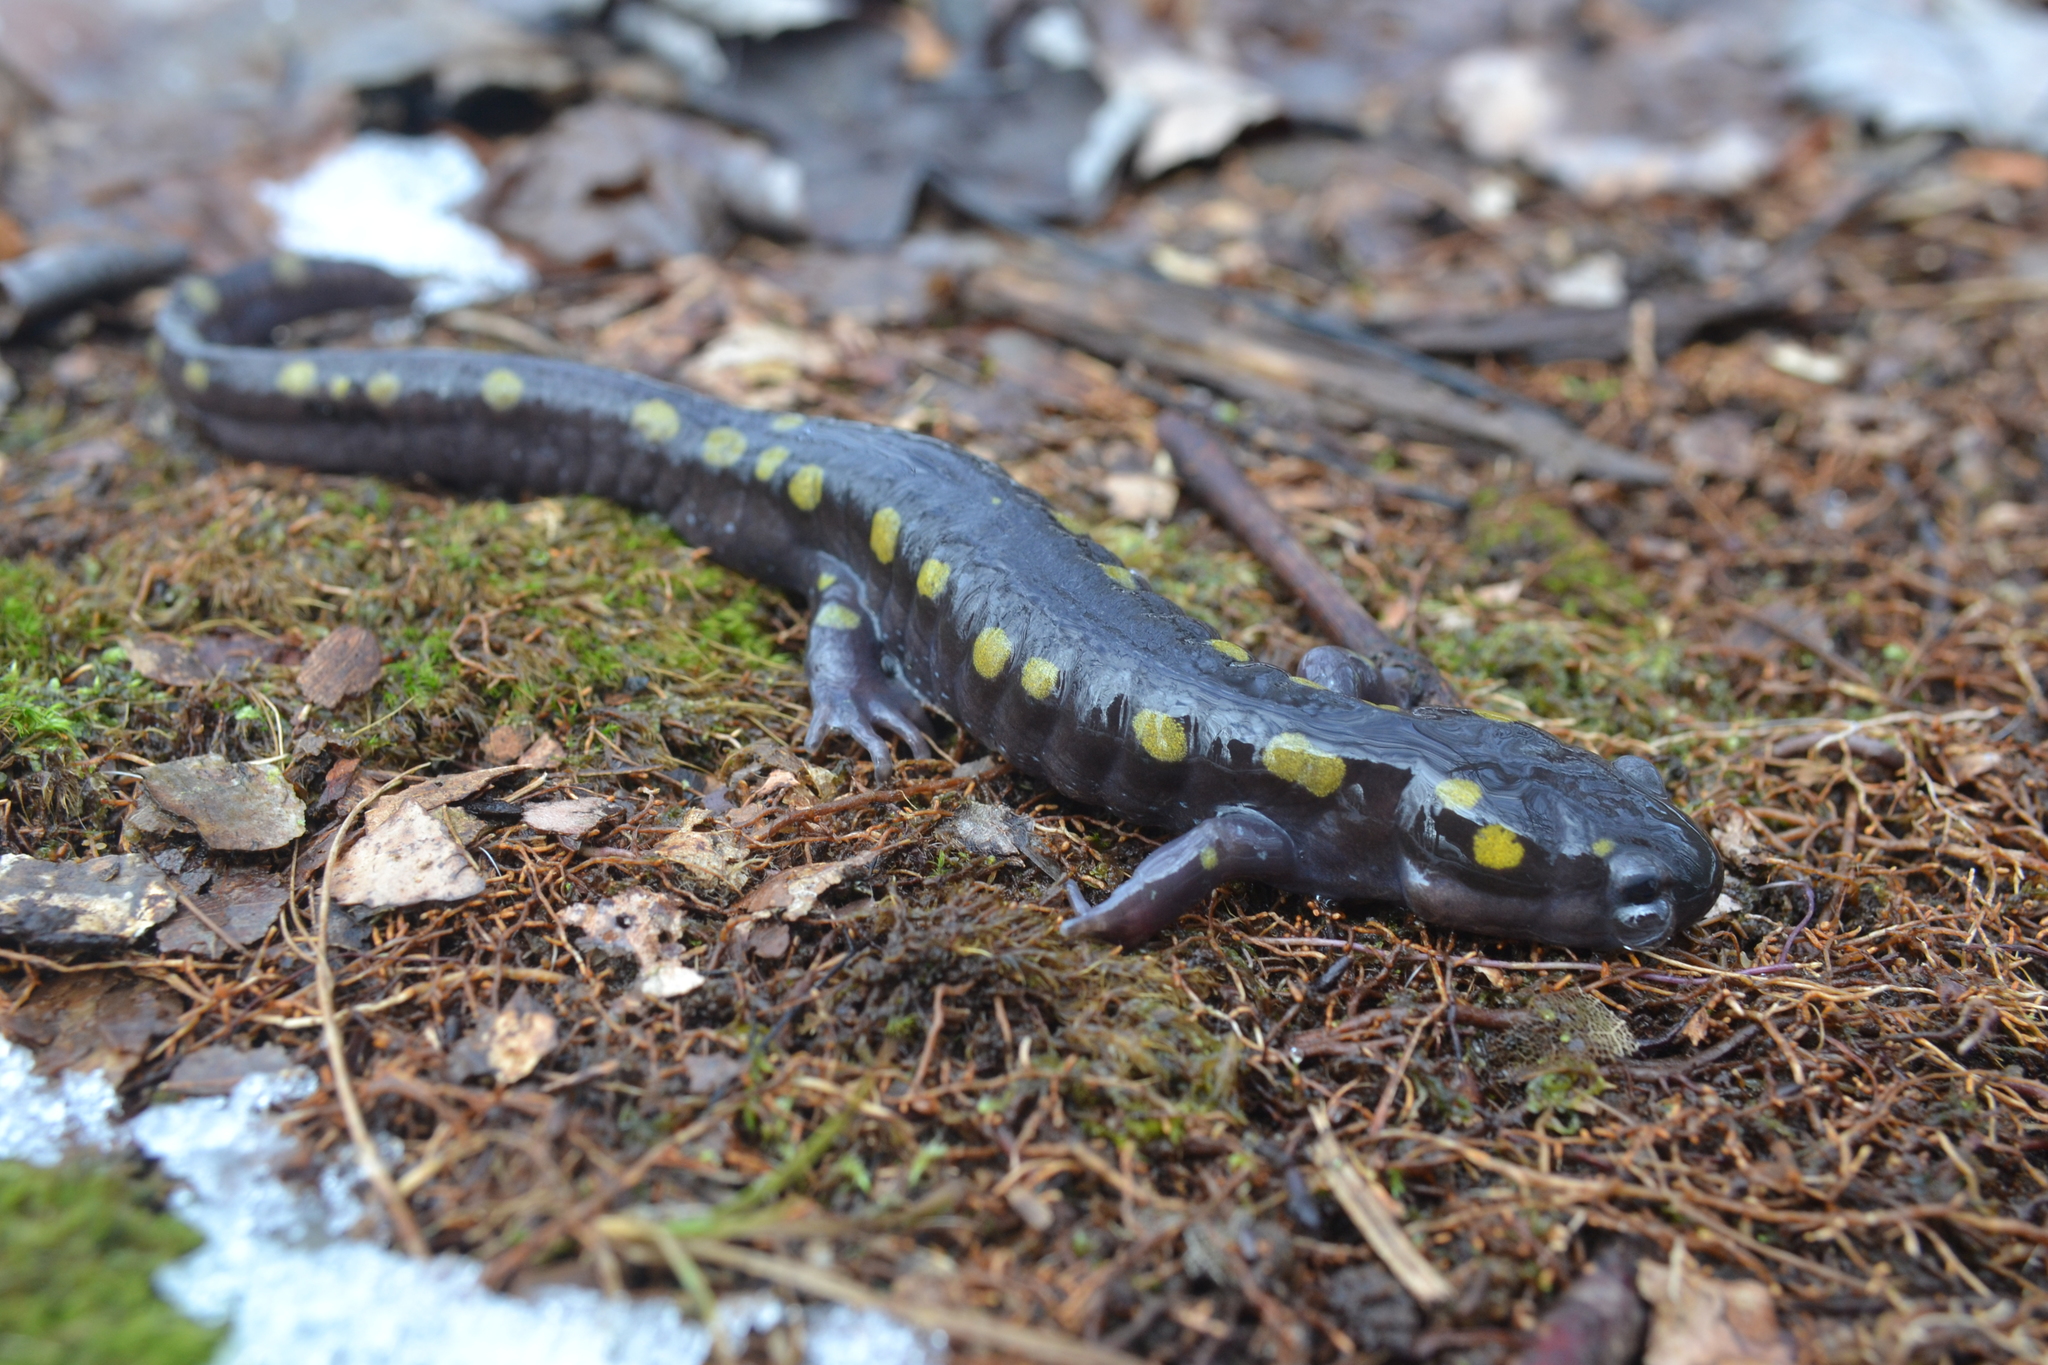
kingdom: Animalia
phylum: Chordata
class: Amphibia
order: Caudata
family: Ambystomatidae
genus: Ambystoma
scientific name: Ambystoma maculatum
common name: Spotted salamander
